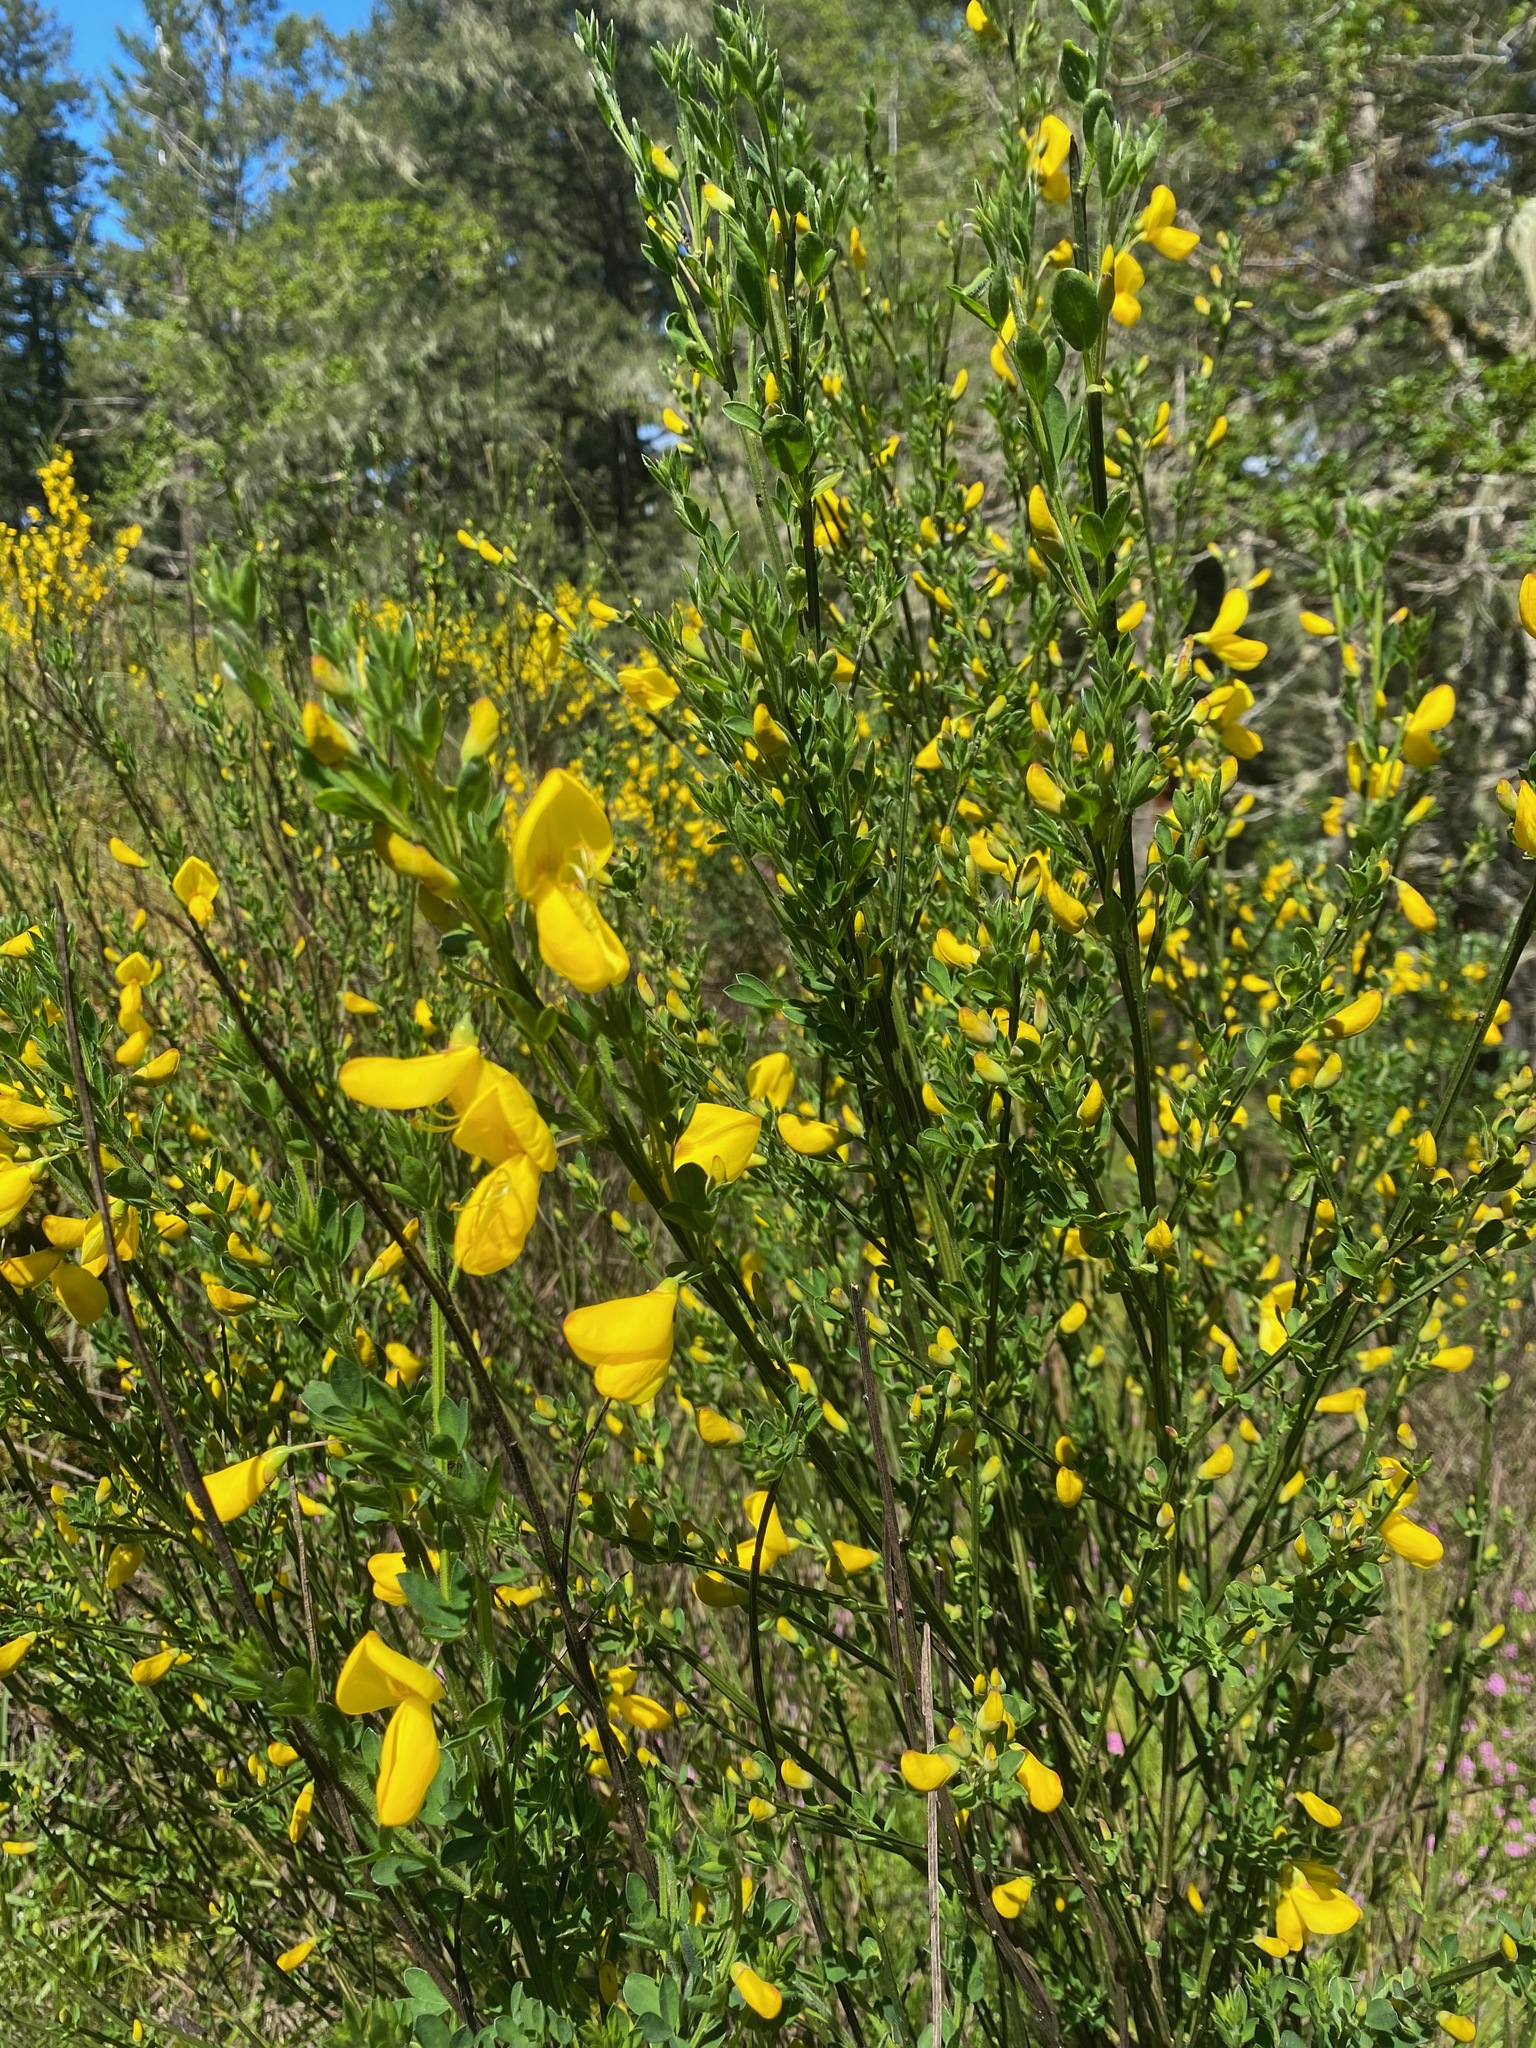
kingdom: Plantae
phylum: Tracheophyta
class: Magnoliopsida
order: Fabales
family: Fabaceae
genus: Cytisus
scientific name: Cytisus scoparius
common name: Scotch broom
